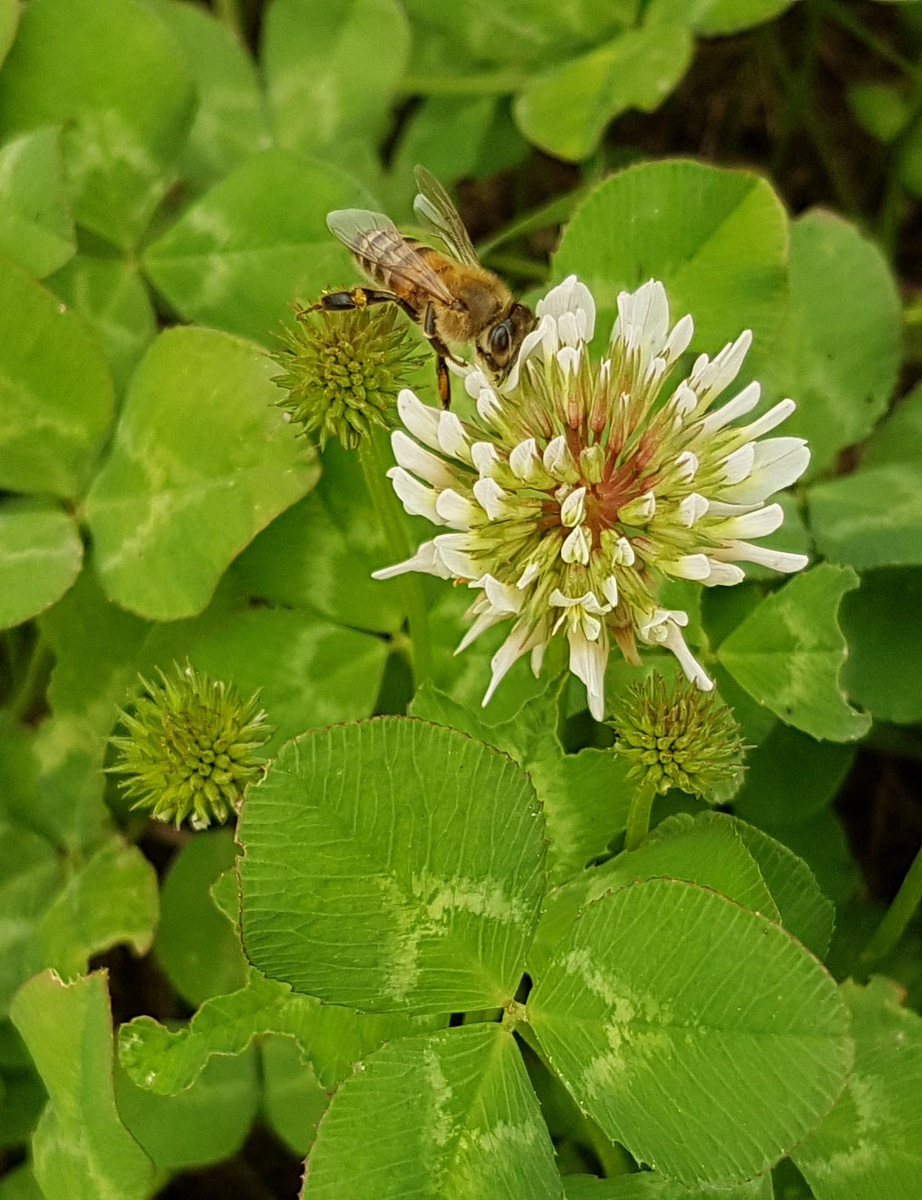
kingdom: Animalia
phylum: Arthropoda
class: Insecta
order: Hymenoptera
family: Apidae
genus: Apis
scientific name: Apis mellifera
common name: Honey bee
